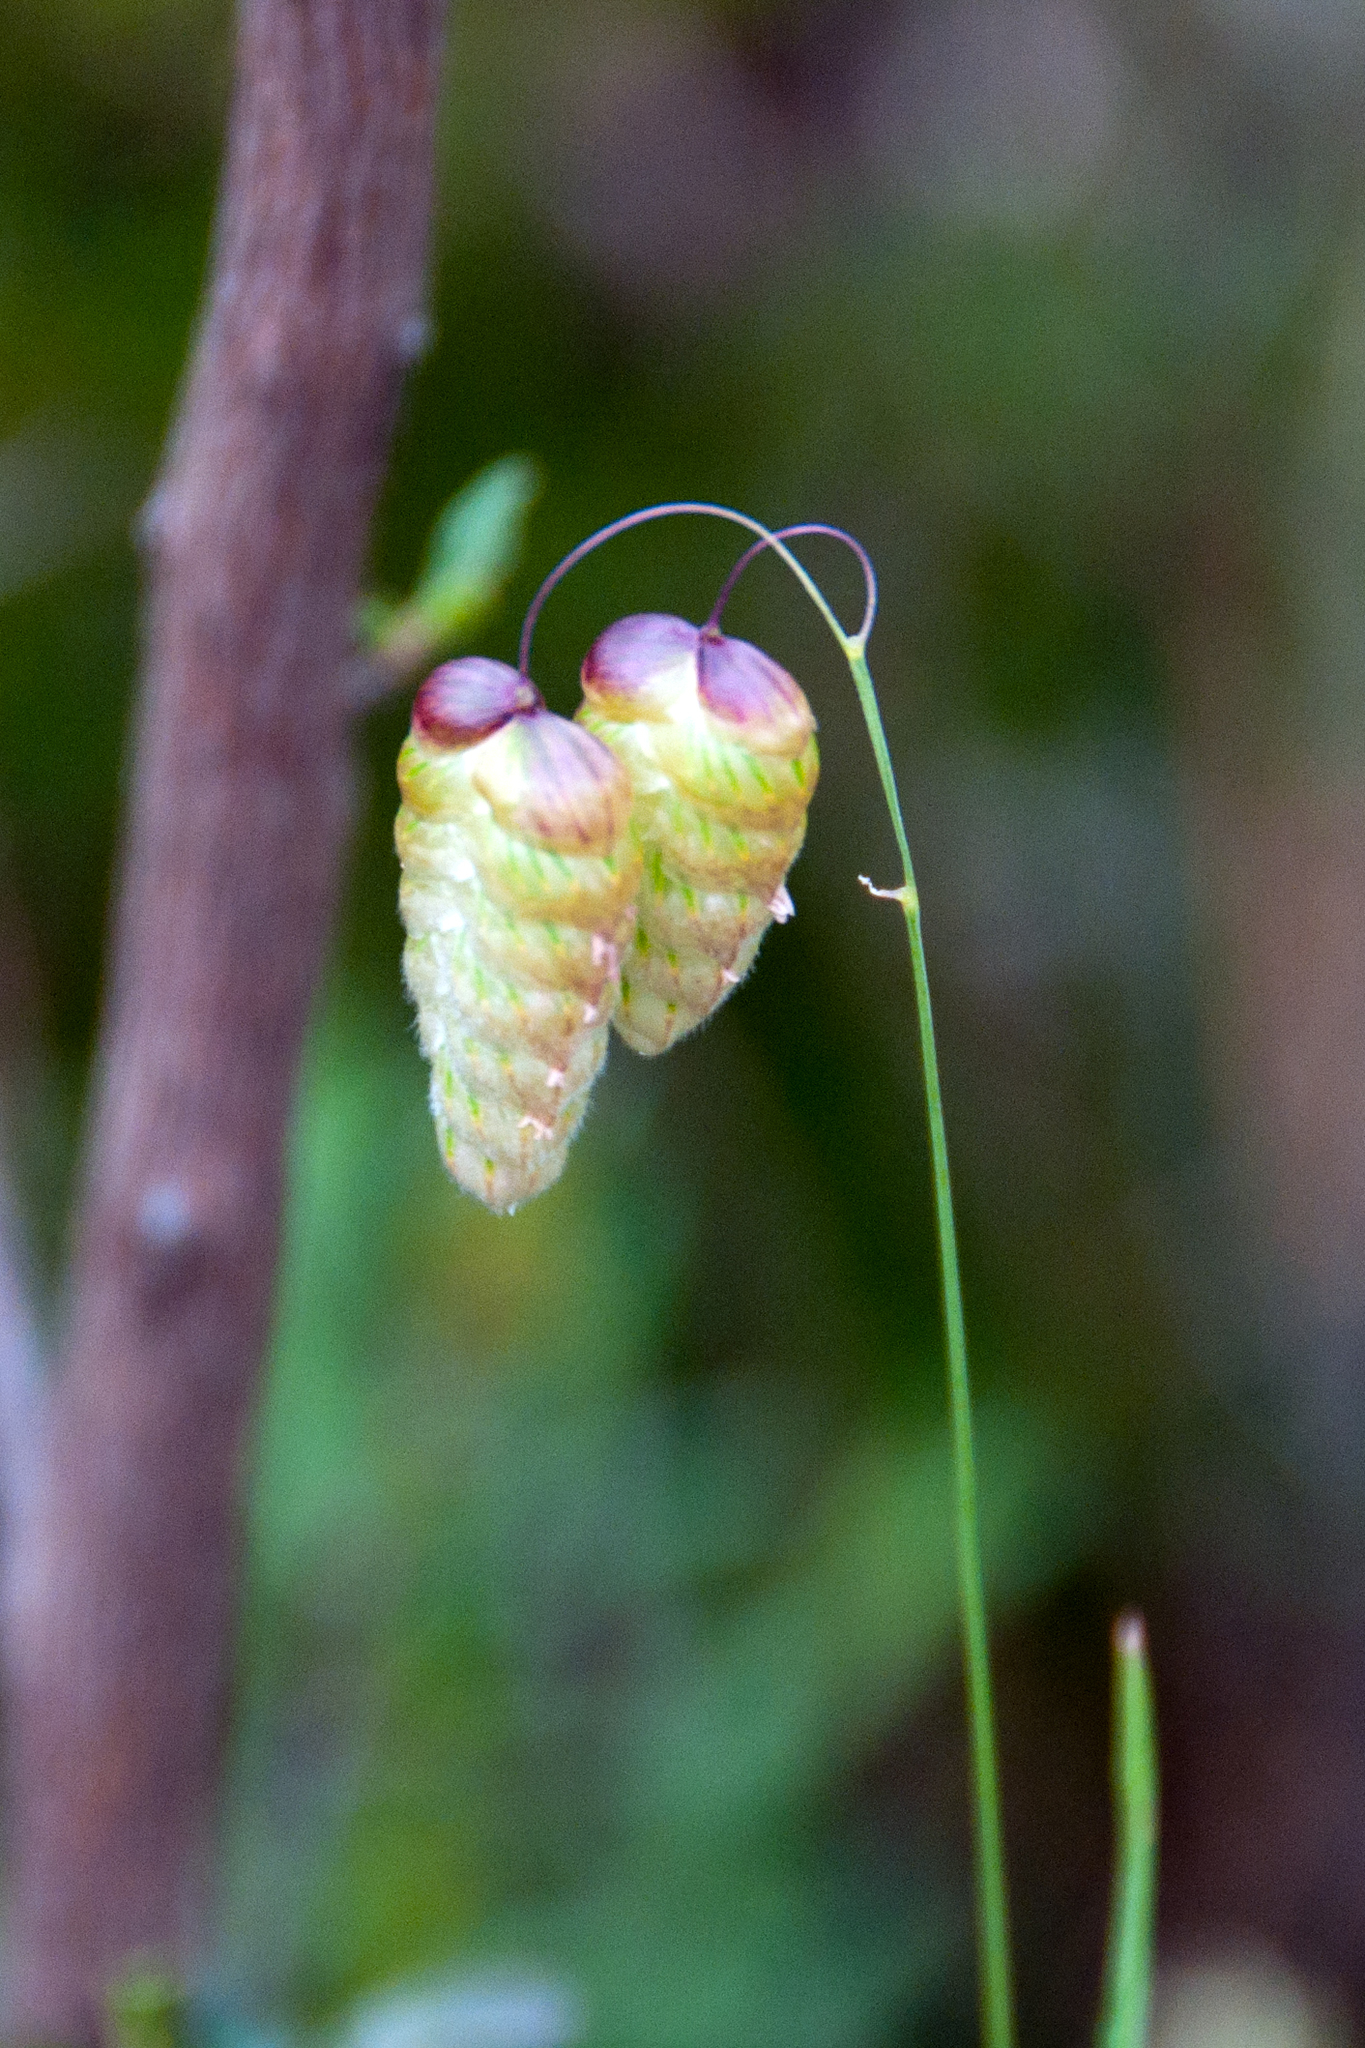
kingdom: Plantae
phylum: Tracheophyta
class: Liliopsida
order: Poales
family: Poaceae
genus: Briza
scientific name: Briza maxima
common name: Big quakinggrass
